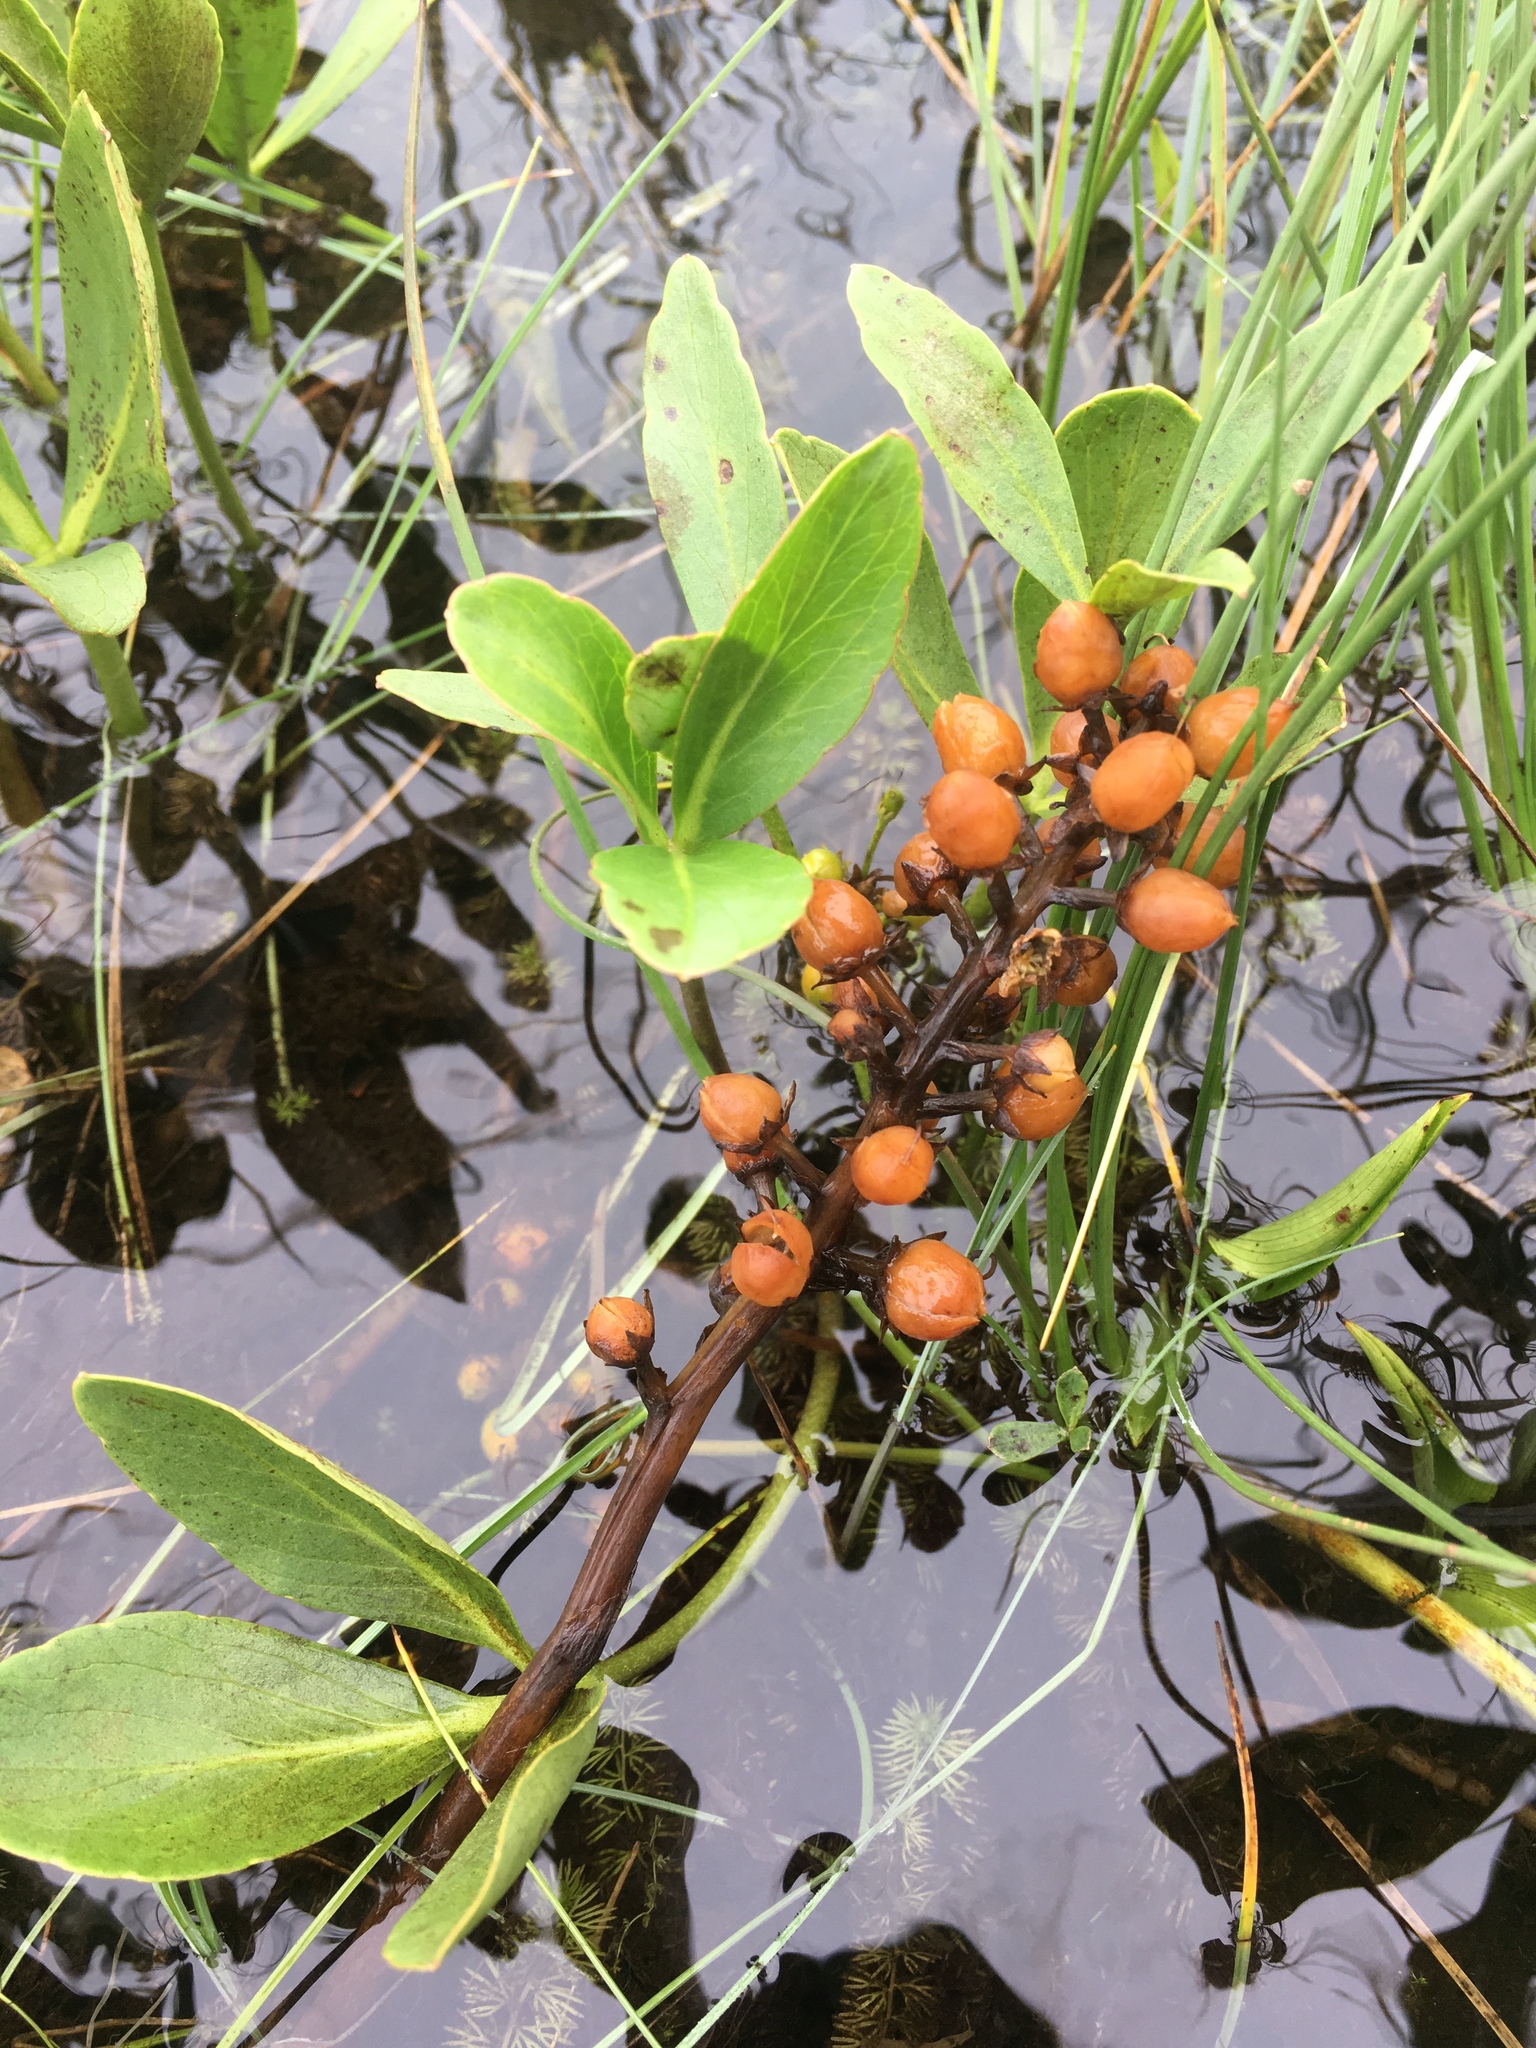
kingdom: Plantae
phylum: Tracheophyta
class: Magnoliopsida
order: Asterales
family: Menyanthaceae
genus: Menyanthes
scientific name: Menyanthes trifoliata
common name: Bogbean
